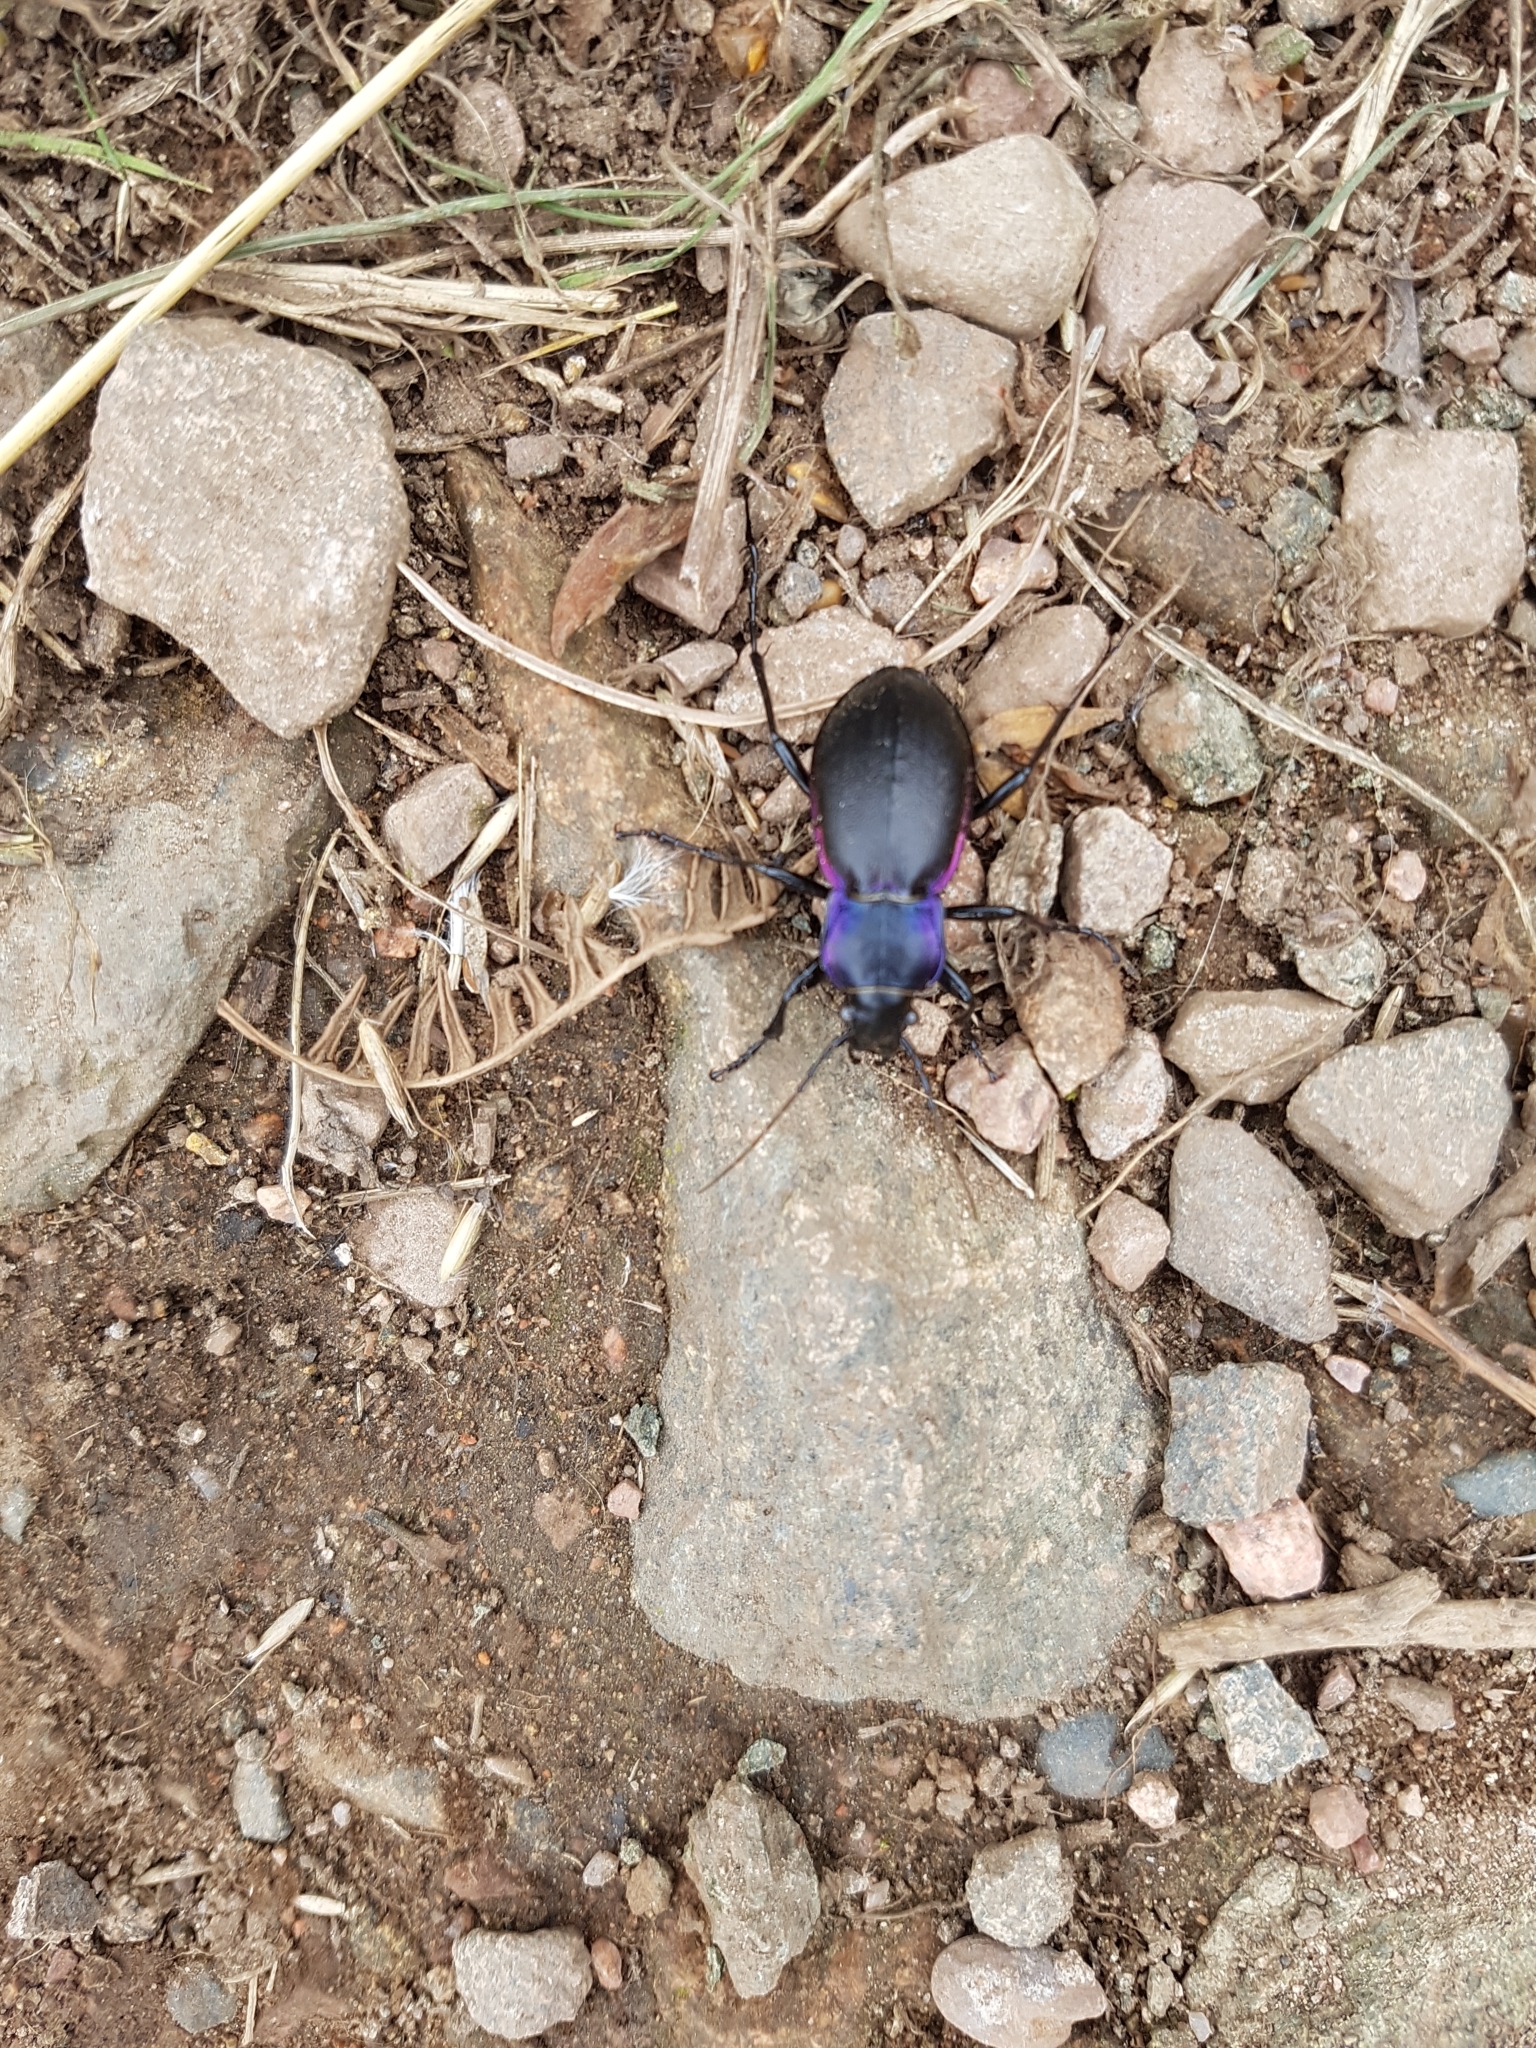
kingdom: Animalia
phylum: Arthropoda
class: Insecta
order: Coleoptera
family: Carabidae
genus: Carabus
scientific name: Carabus violaceus
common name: Violet ground beetle
